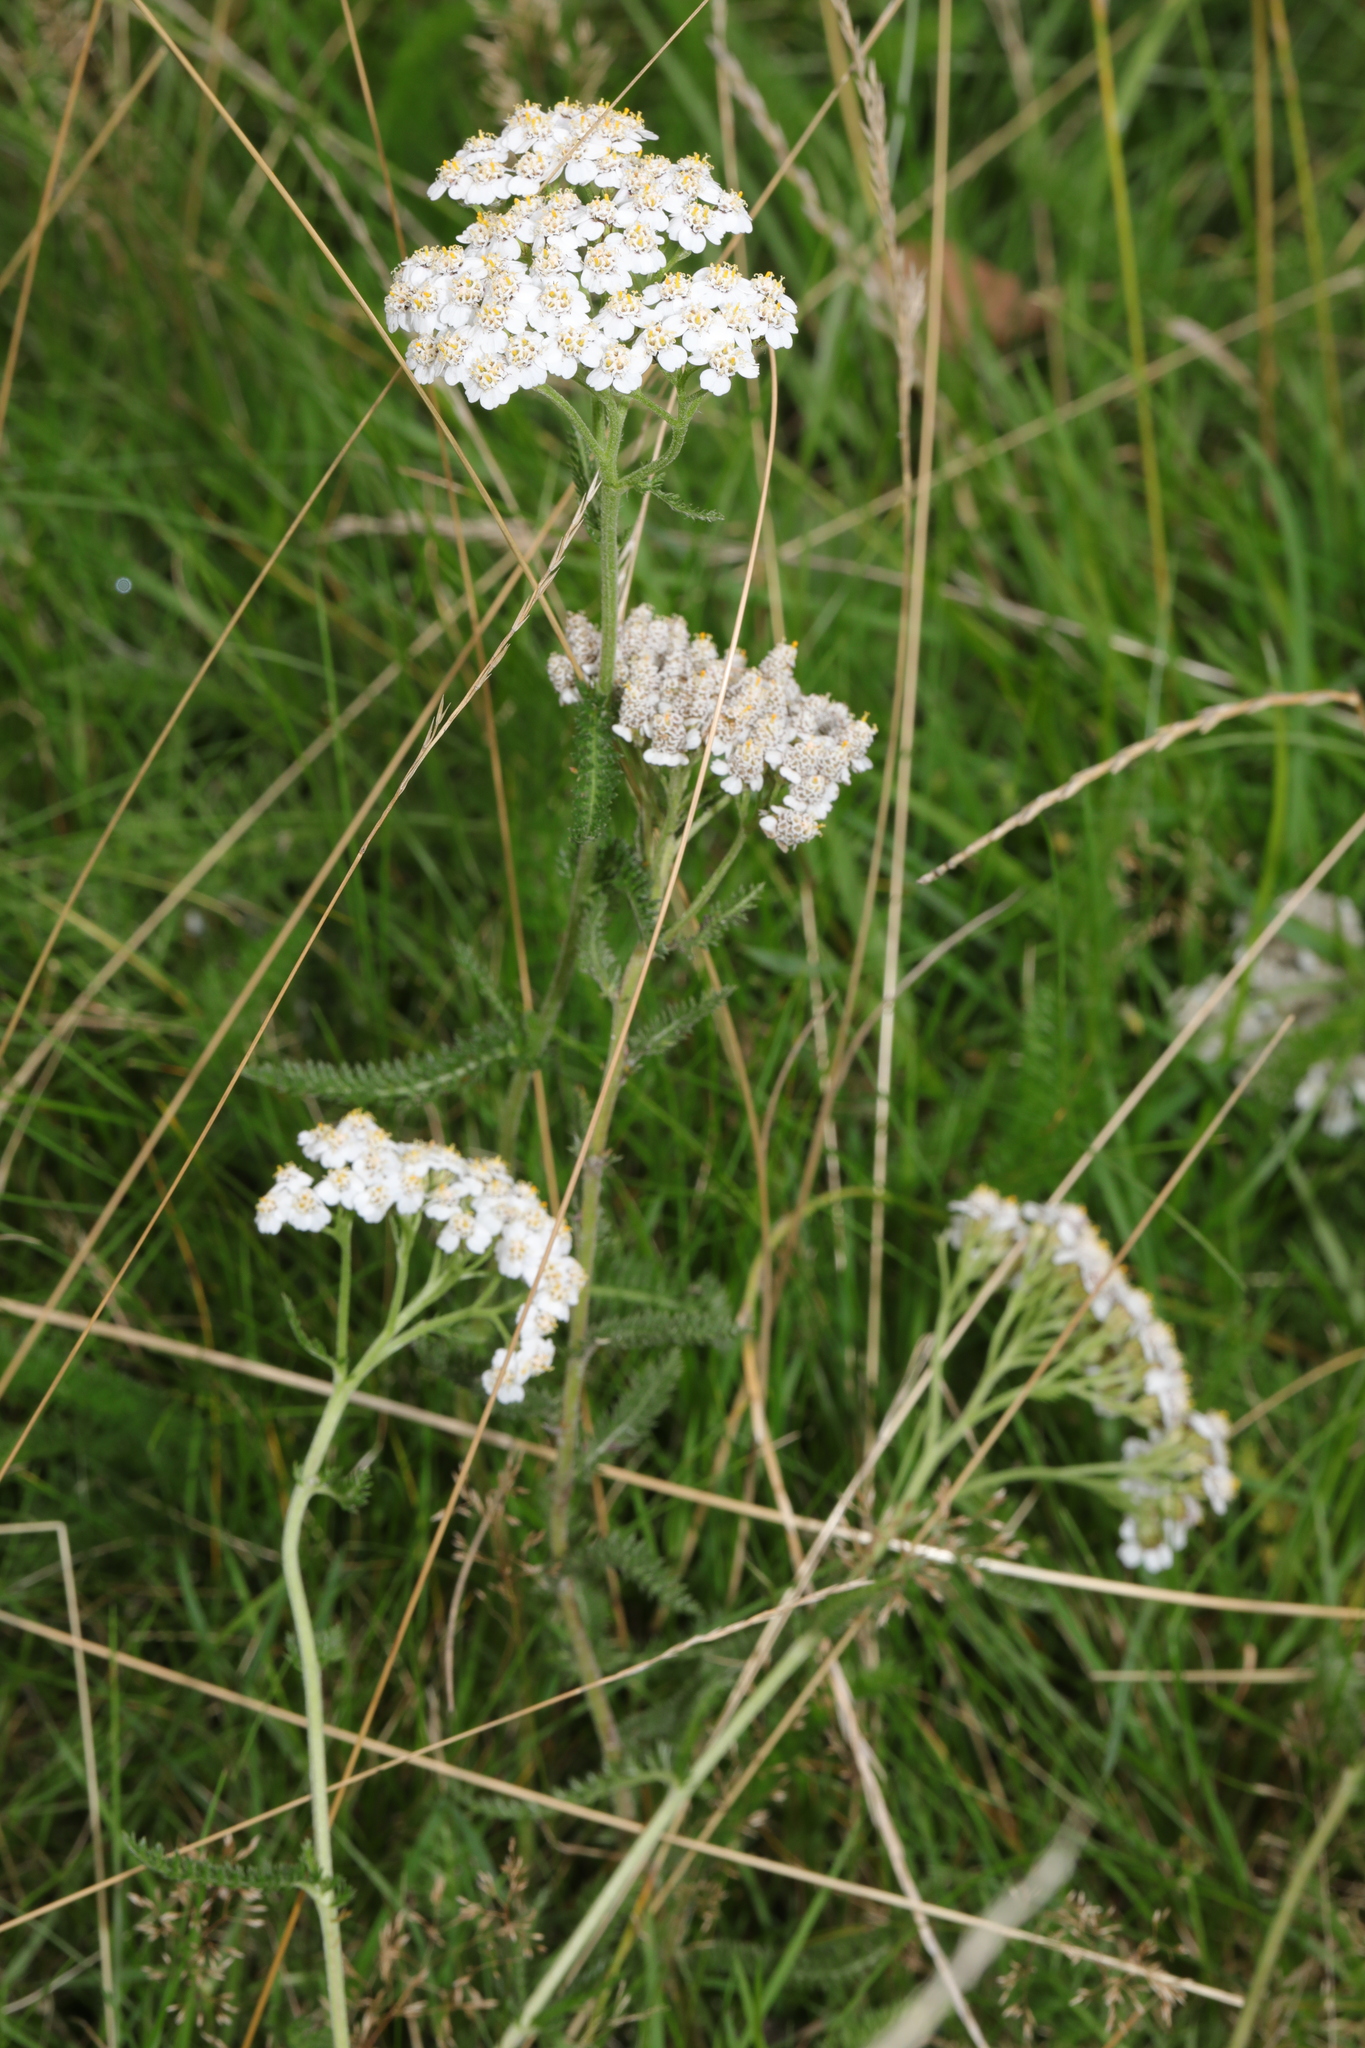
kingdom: Plantae
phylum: Tracheophyta
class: Magnoliopsida
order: Asterales
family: Asteraceae
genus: Achillea
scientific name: Achillea millefolium
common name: Yarrow
